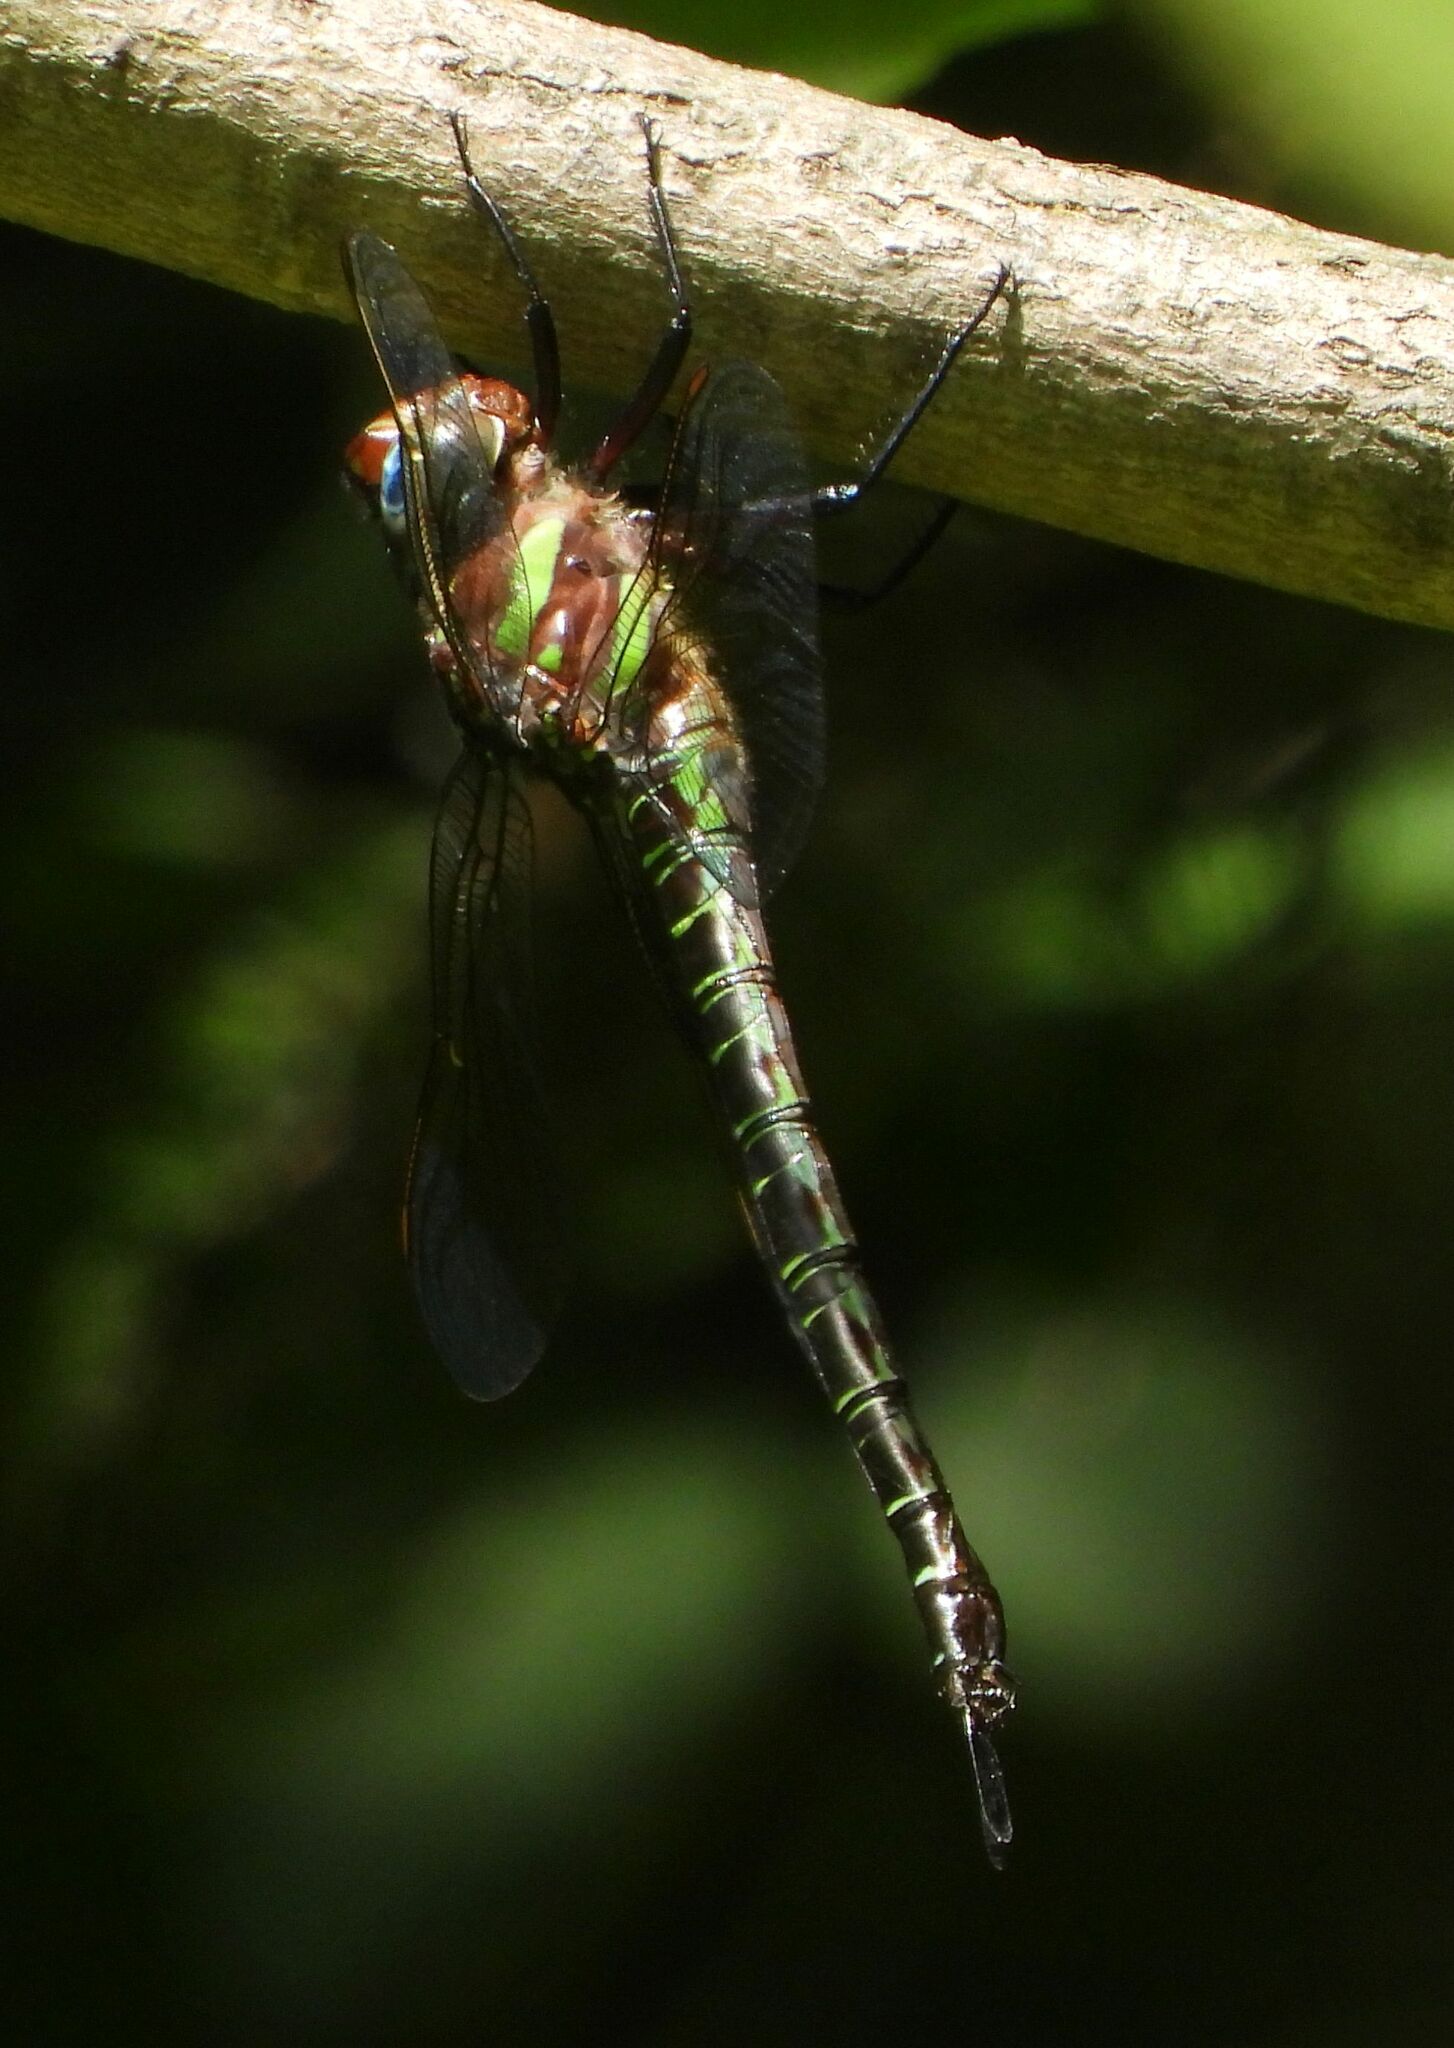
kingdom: Animalia
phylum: Arthropoda
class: Insecta
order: Odonata
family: Aeshnidae
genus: Epiaeschna
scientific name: Epiaeschna heros
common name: Swamp darner
